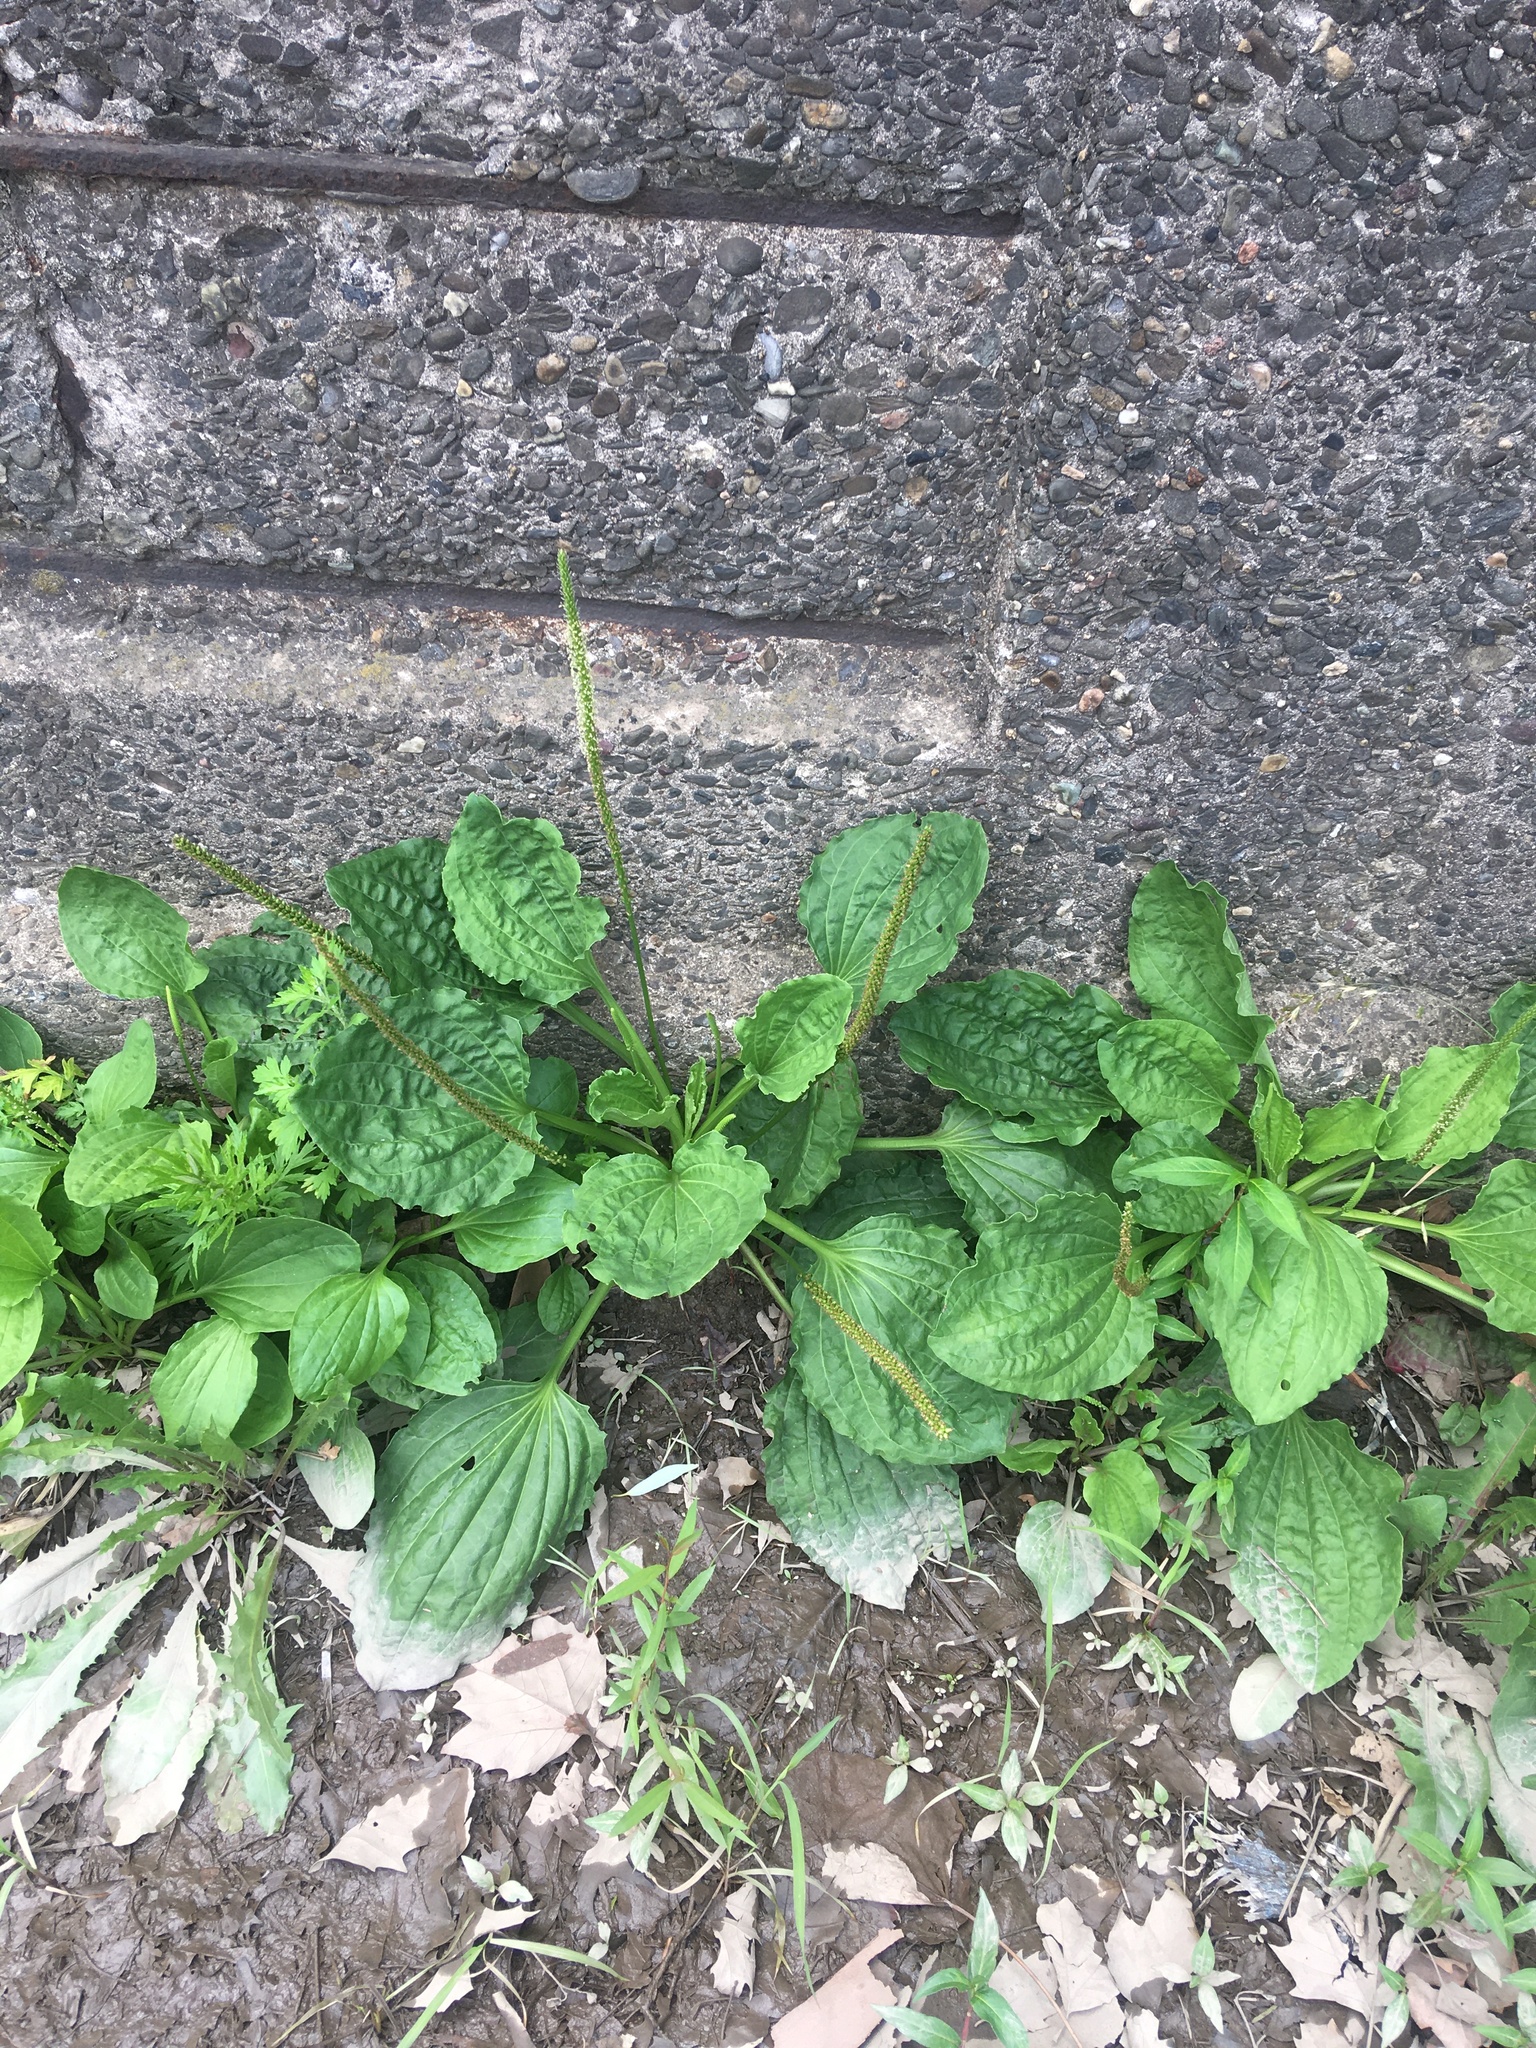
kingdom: Plantae
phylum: Tracheophyta
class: Magnoliopsida
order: Lamiales
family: Plantaginaceae
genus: Plantago
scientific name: Plantago major
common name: Common plantain
